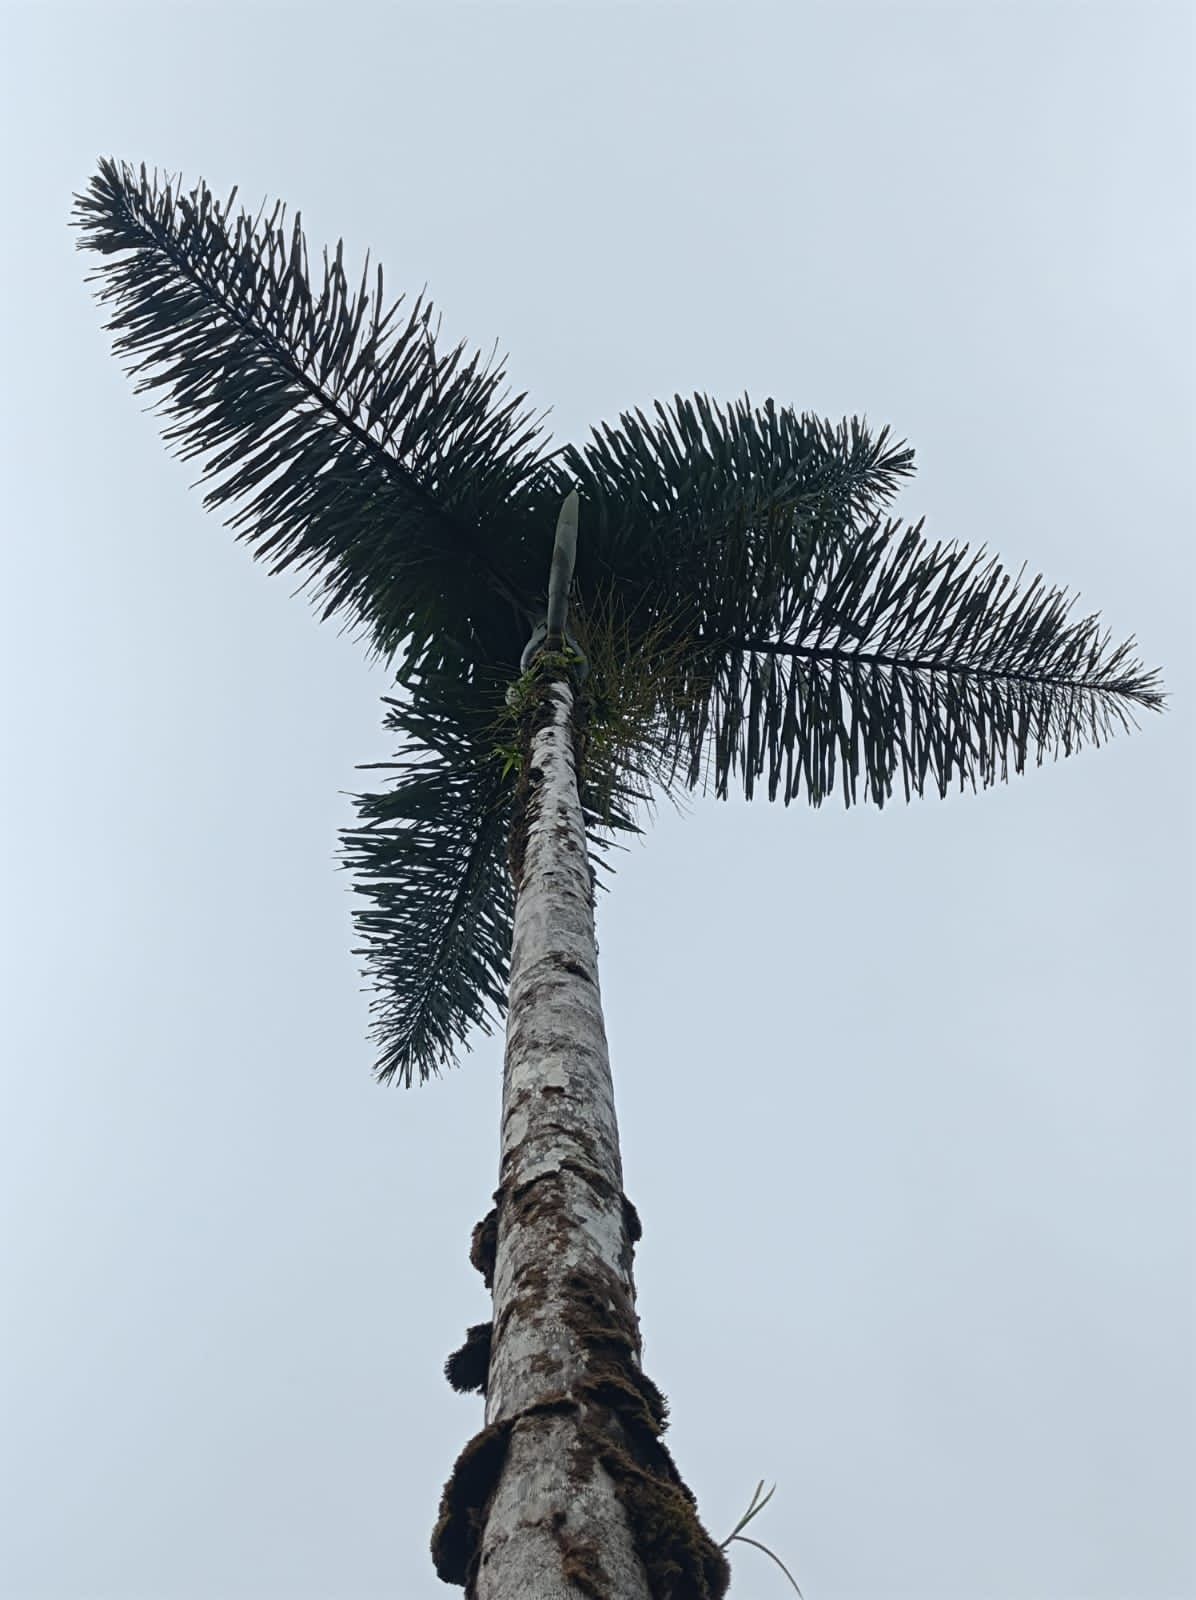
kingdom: Plantae
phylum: Tracheophyta
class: Liliopsida
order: Arecales
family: Arecaceae
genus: Dictyocaryum
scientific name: Dictyocaryum lamarckianum
